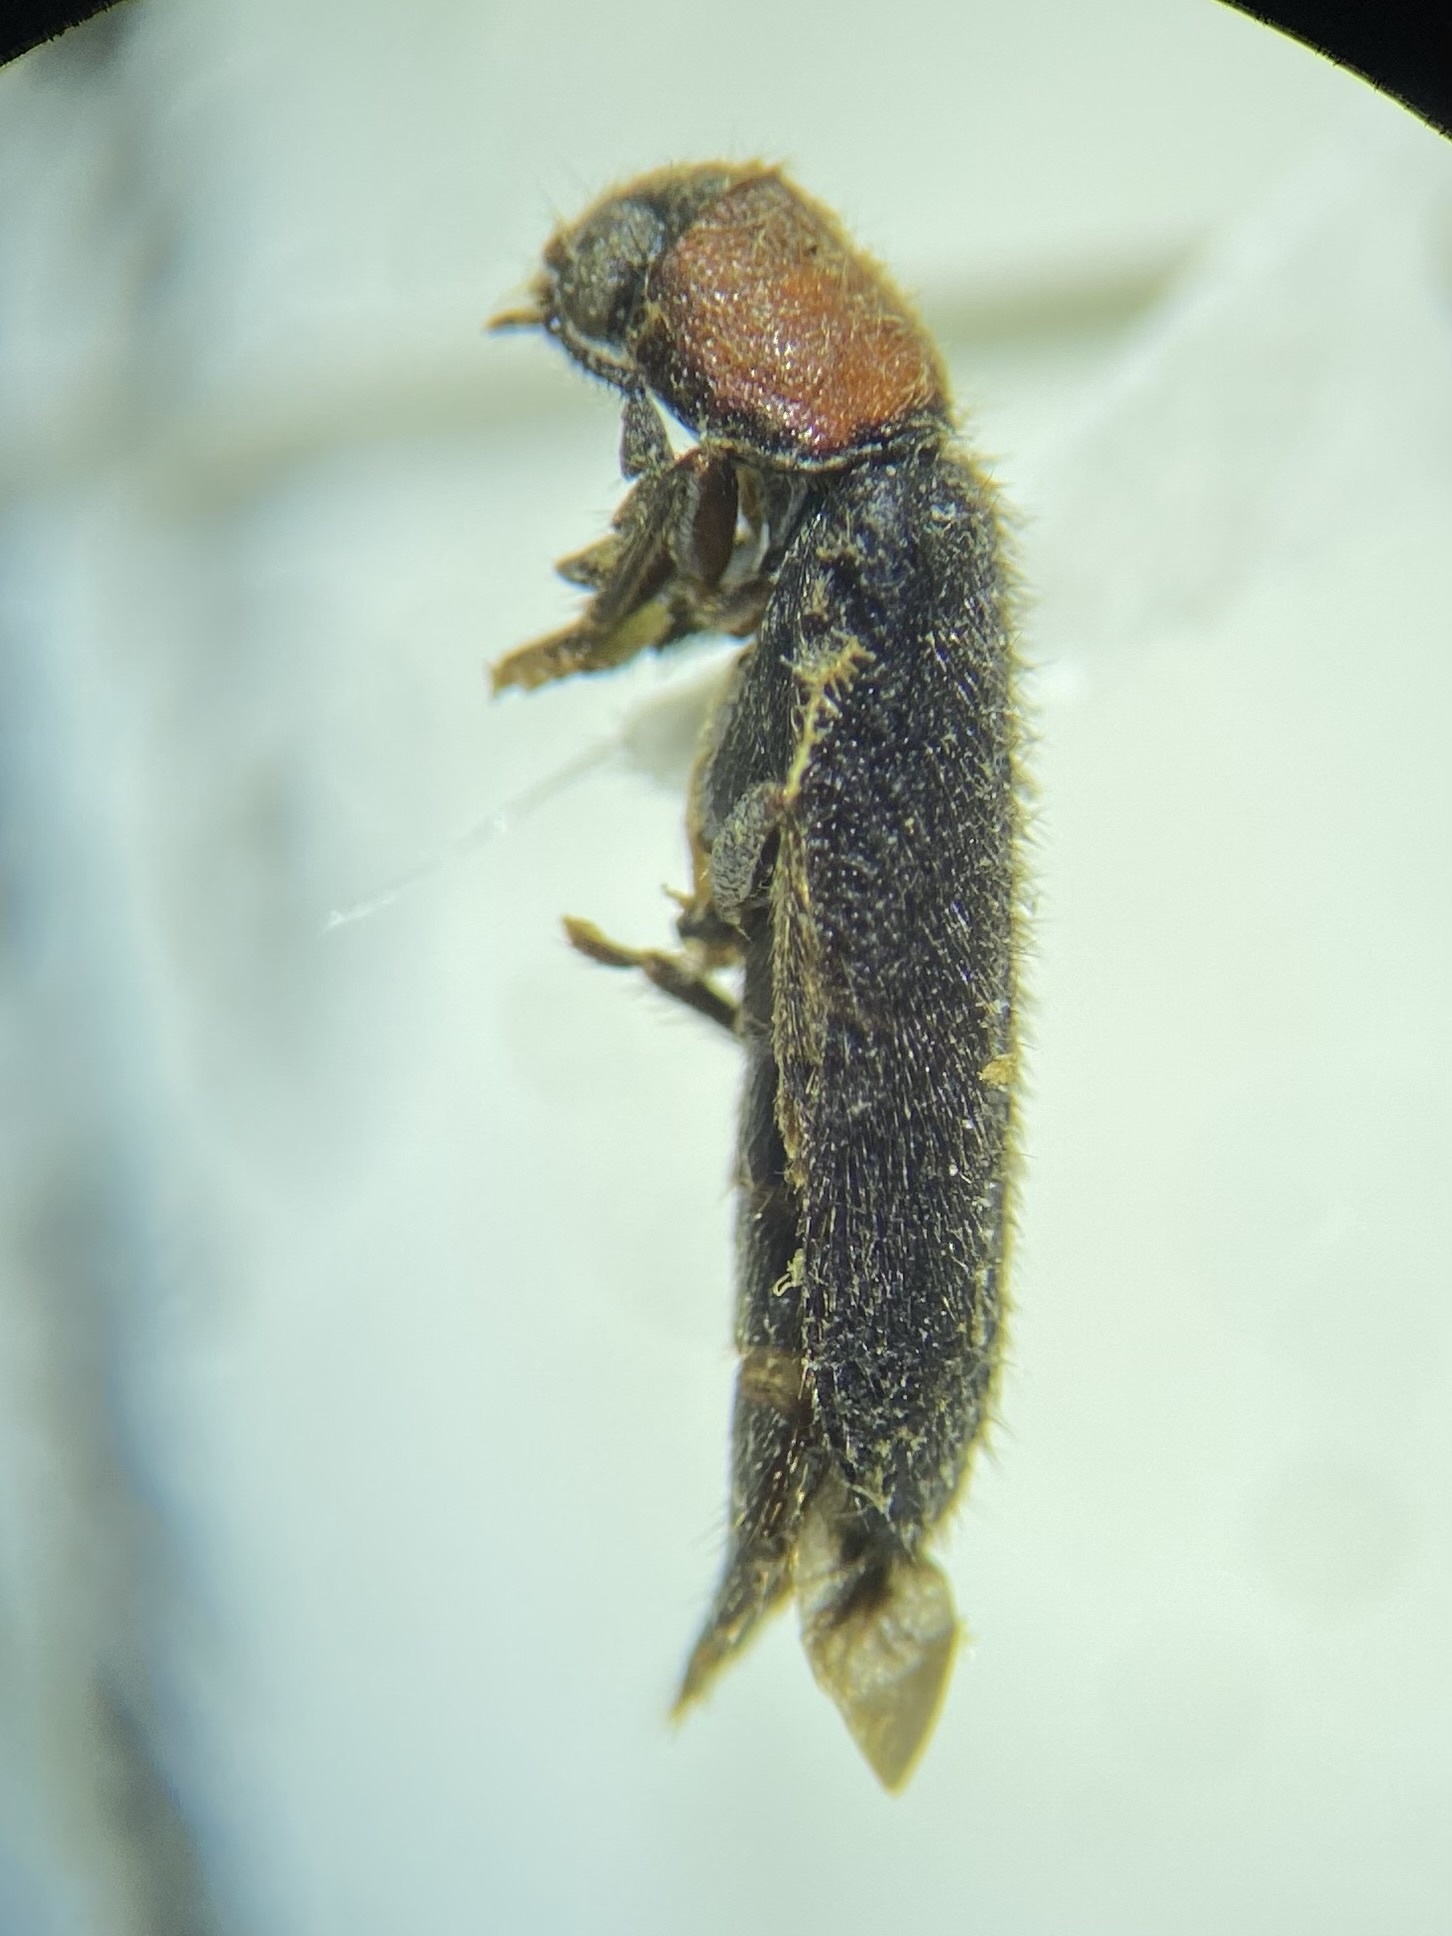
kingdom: Animalia
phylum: Arthropoda
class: Insecta
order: Coleoptera
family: Cleridae
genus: Neorthopleura
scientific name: Neorthopleura thoracica
